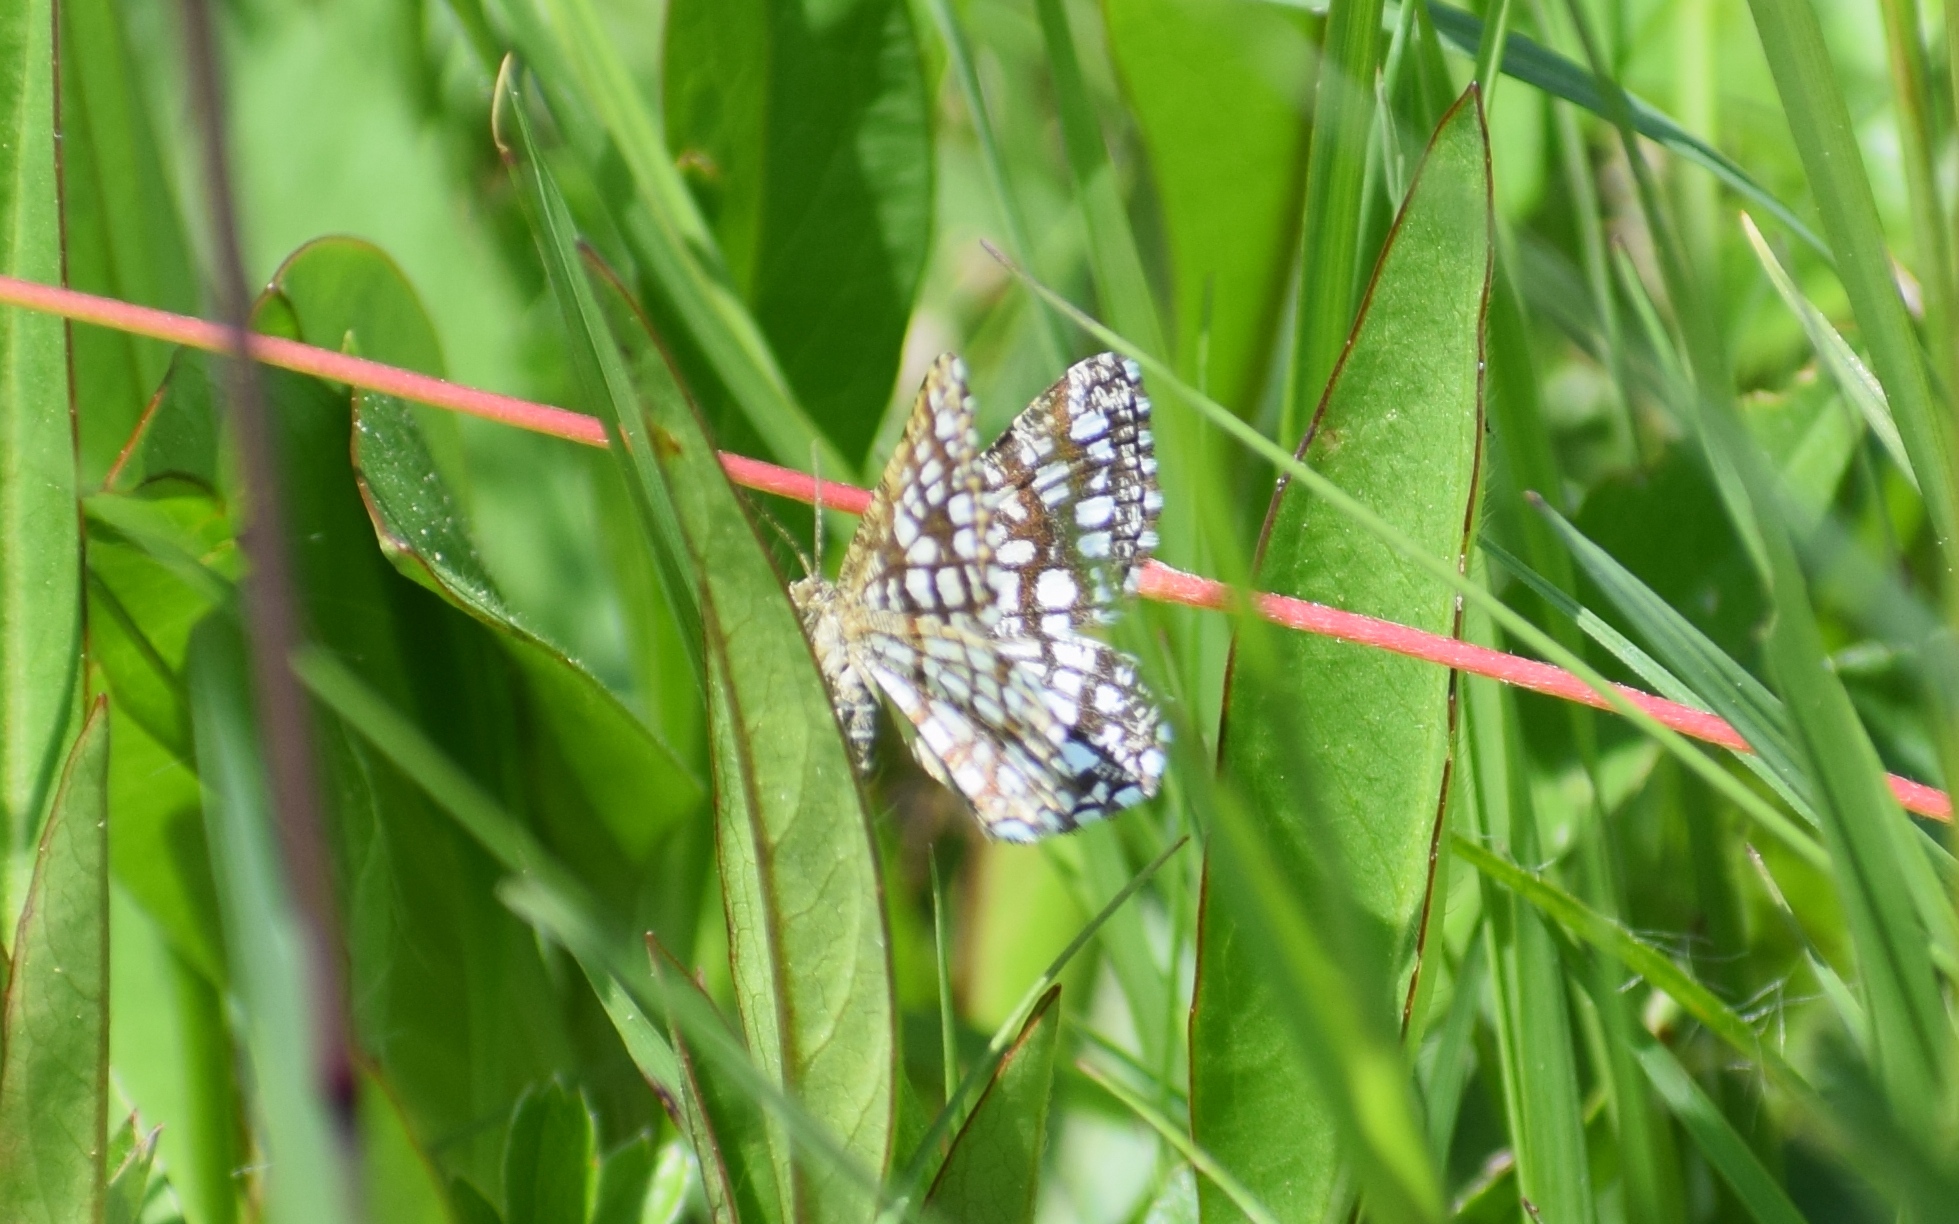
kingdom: Animalia
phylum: Arthropoda
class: Insecta
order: Lepidoptera
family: Geometridae
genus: Chiasmia
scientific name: Chiasmia clathrata
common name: Latticed heath
